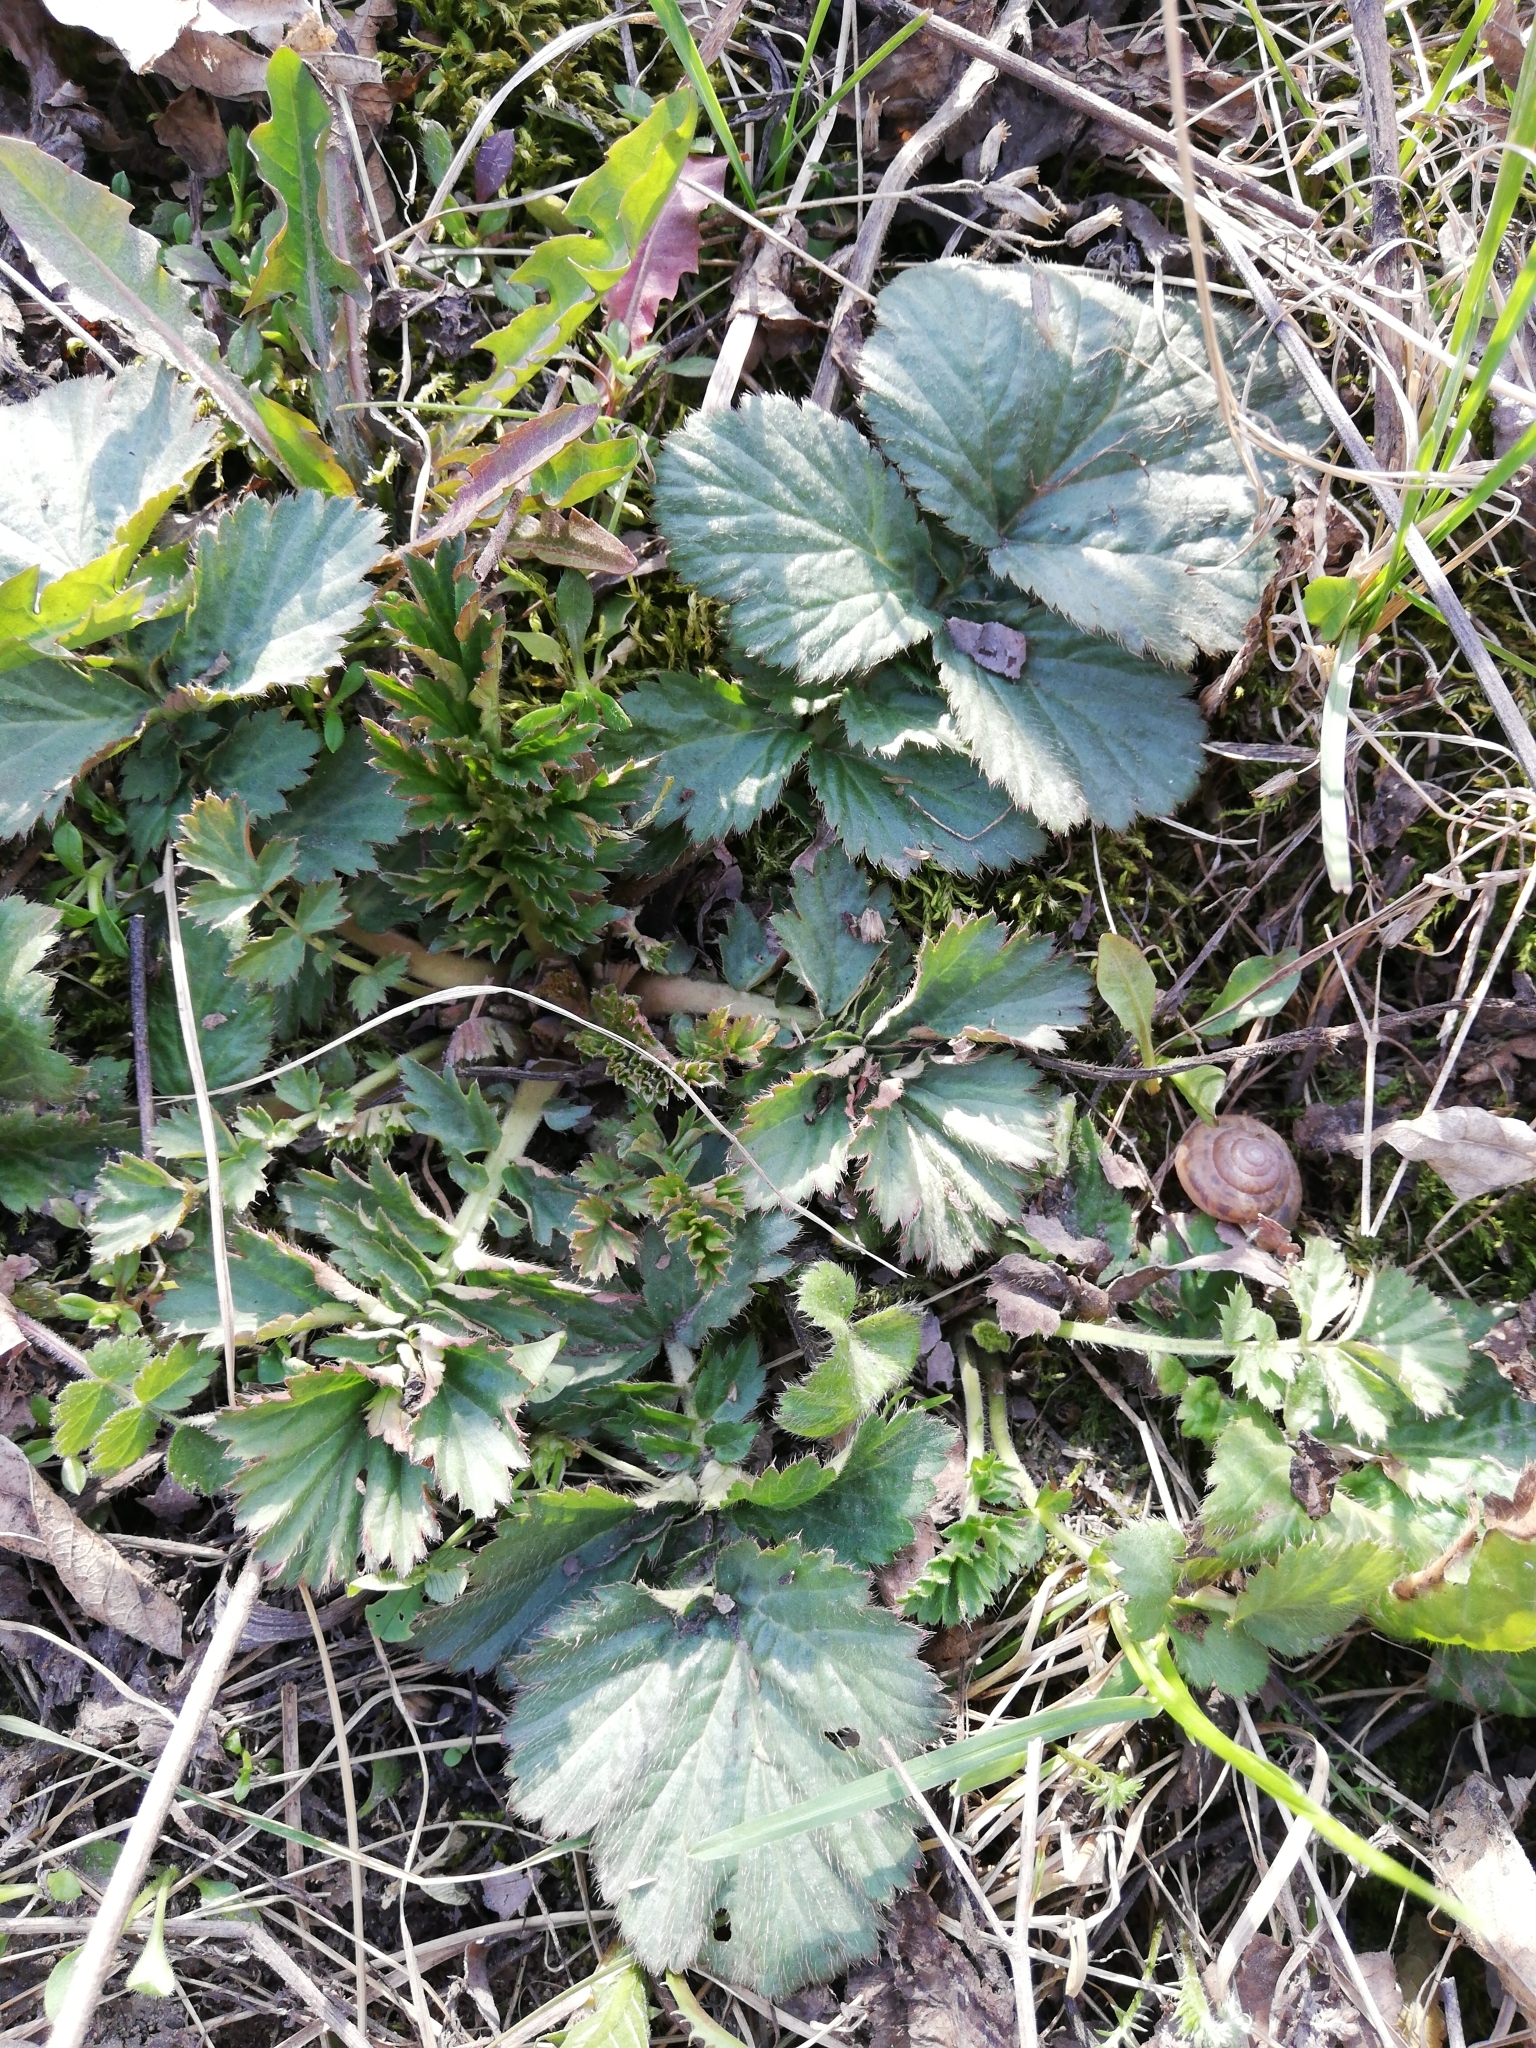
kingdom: Plantae
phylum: Tracheophyta
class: Magnoliopsida
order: Rosales
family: Rosaceae
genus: Geum
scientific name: Geum
